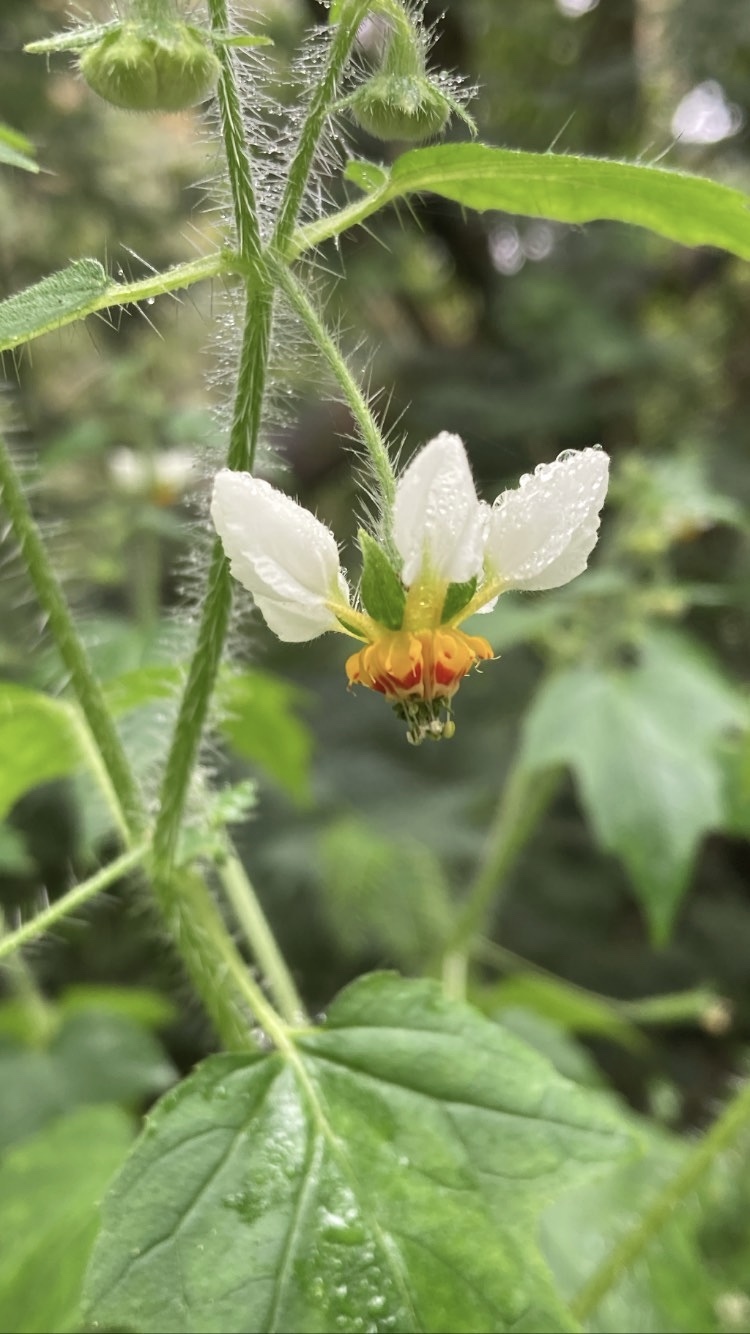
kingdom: Plantae
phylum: Tracheophyta
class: Magnoliopsida
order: Cornales
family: Loasaceae
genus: Loasa
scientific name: Loasa triloba
